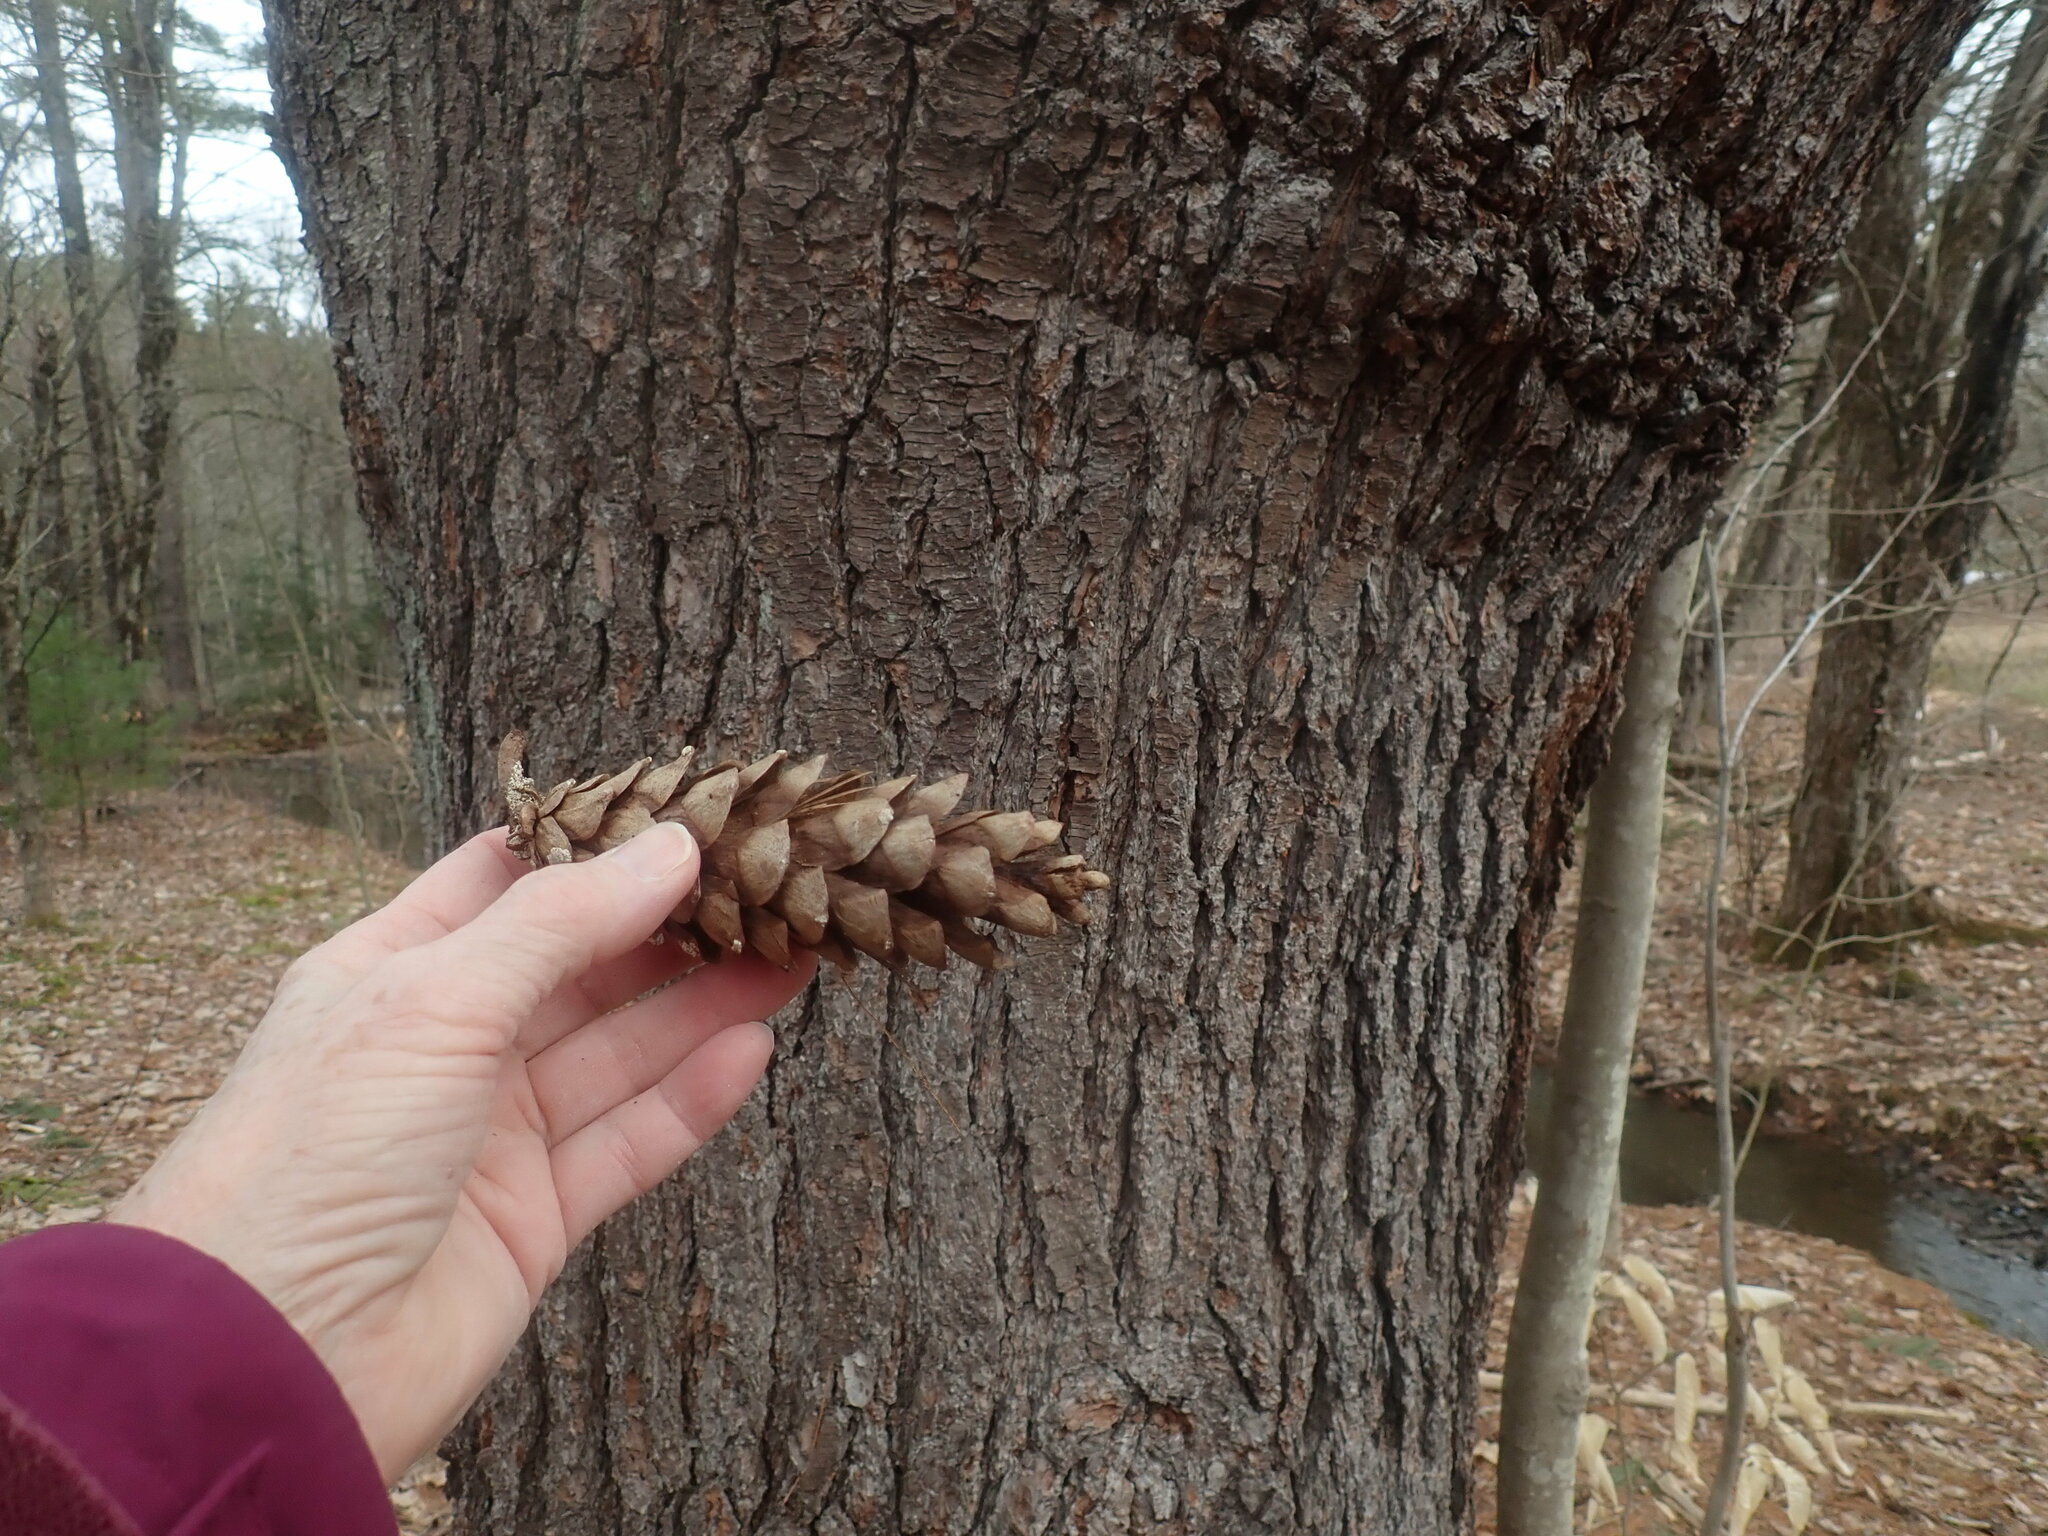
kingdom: Plantae
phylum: Tracheophyta
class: Pinopsida
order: Pinales
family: Pinaceae
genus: Pinus
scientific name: Pinus strobus
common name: Weymouth pine
